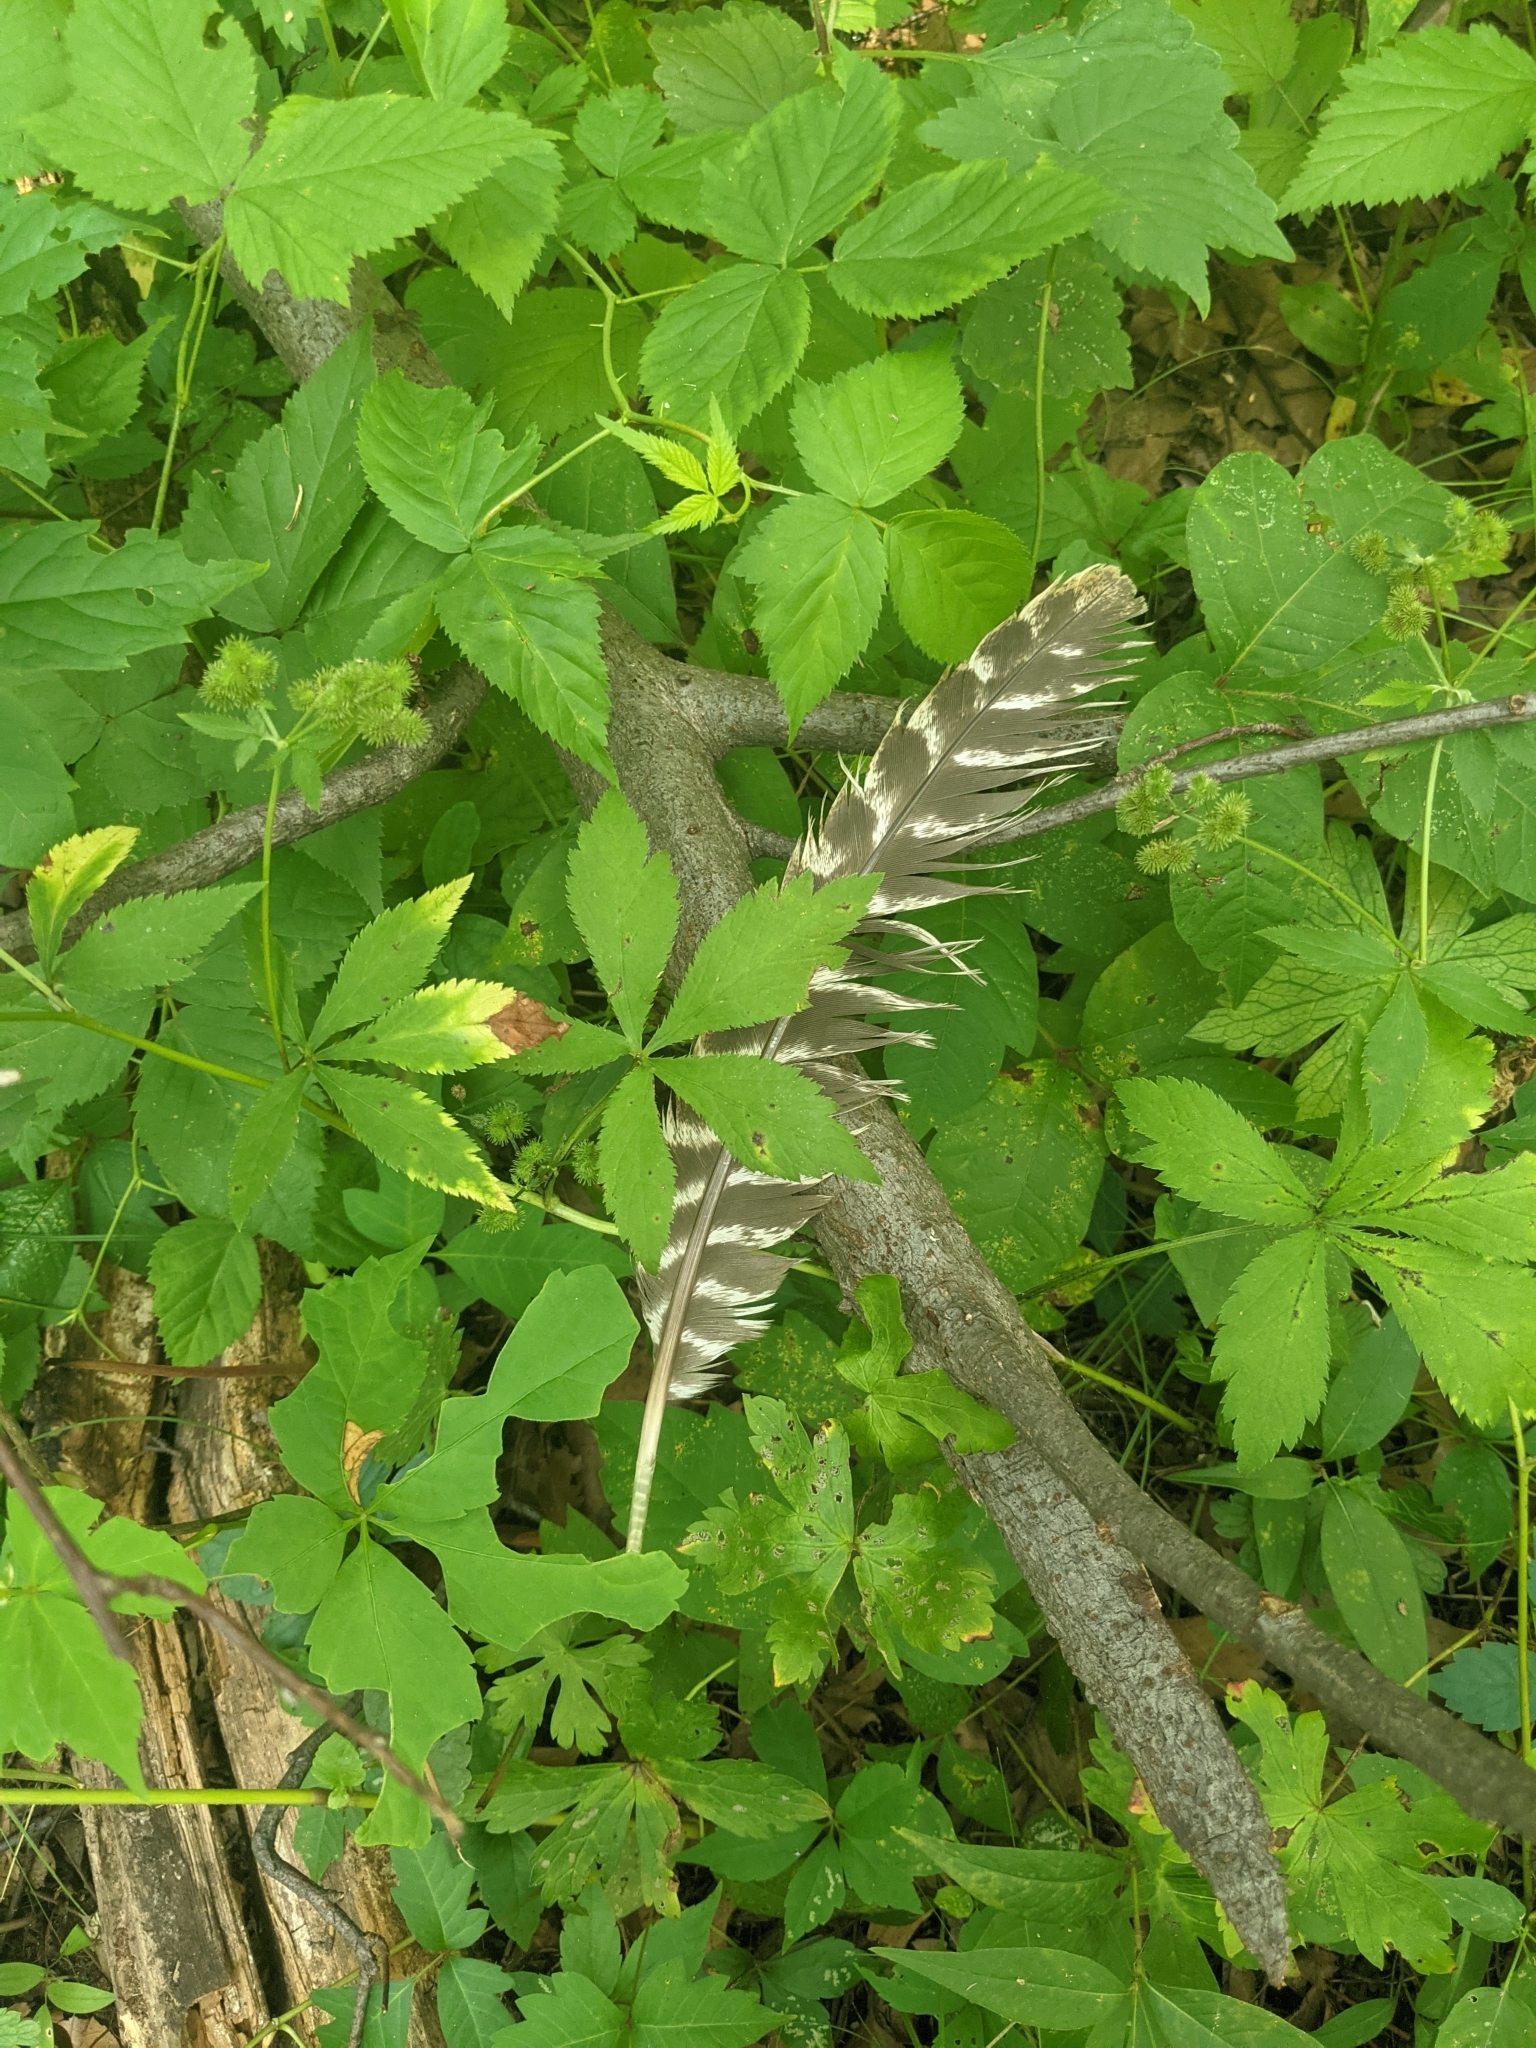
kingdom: Animalia
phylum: Chordata
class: Aves
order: Galliformes
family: Phasianidae
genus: Meleagris
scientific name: Meleagris gallopavo
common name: Wild turkey
